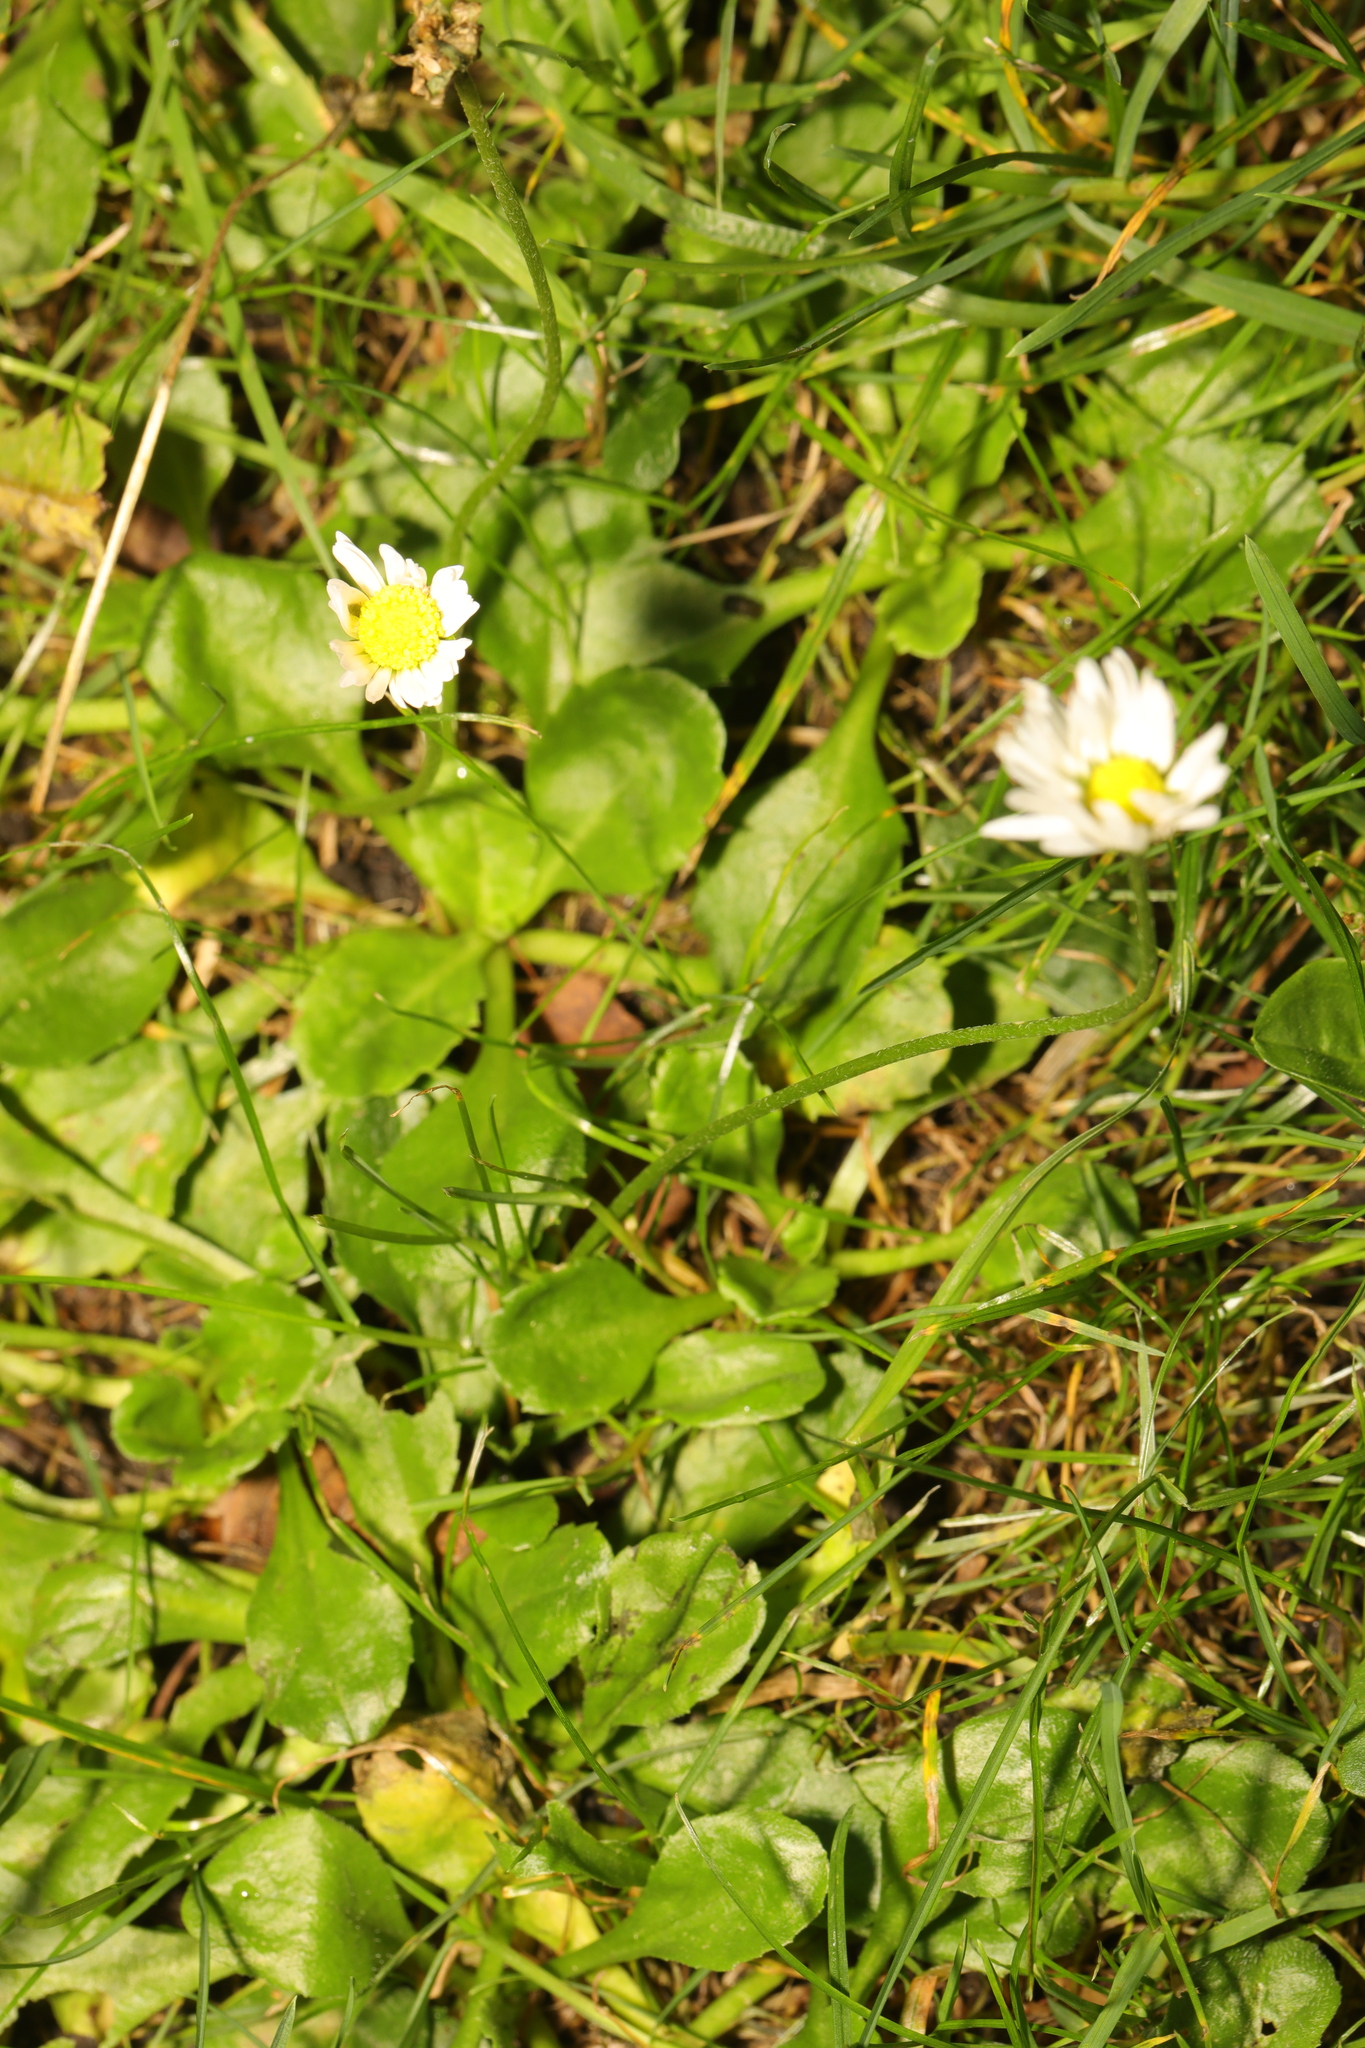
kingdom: Plantae
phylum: Tracheophyta
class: Magnoliopsida
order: Asterales
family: Asteraceae
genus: Bellis
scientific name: Bellis perennis
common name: Lawndaisy
